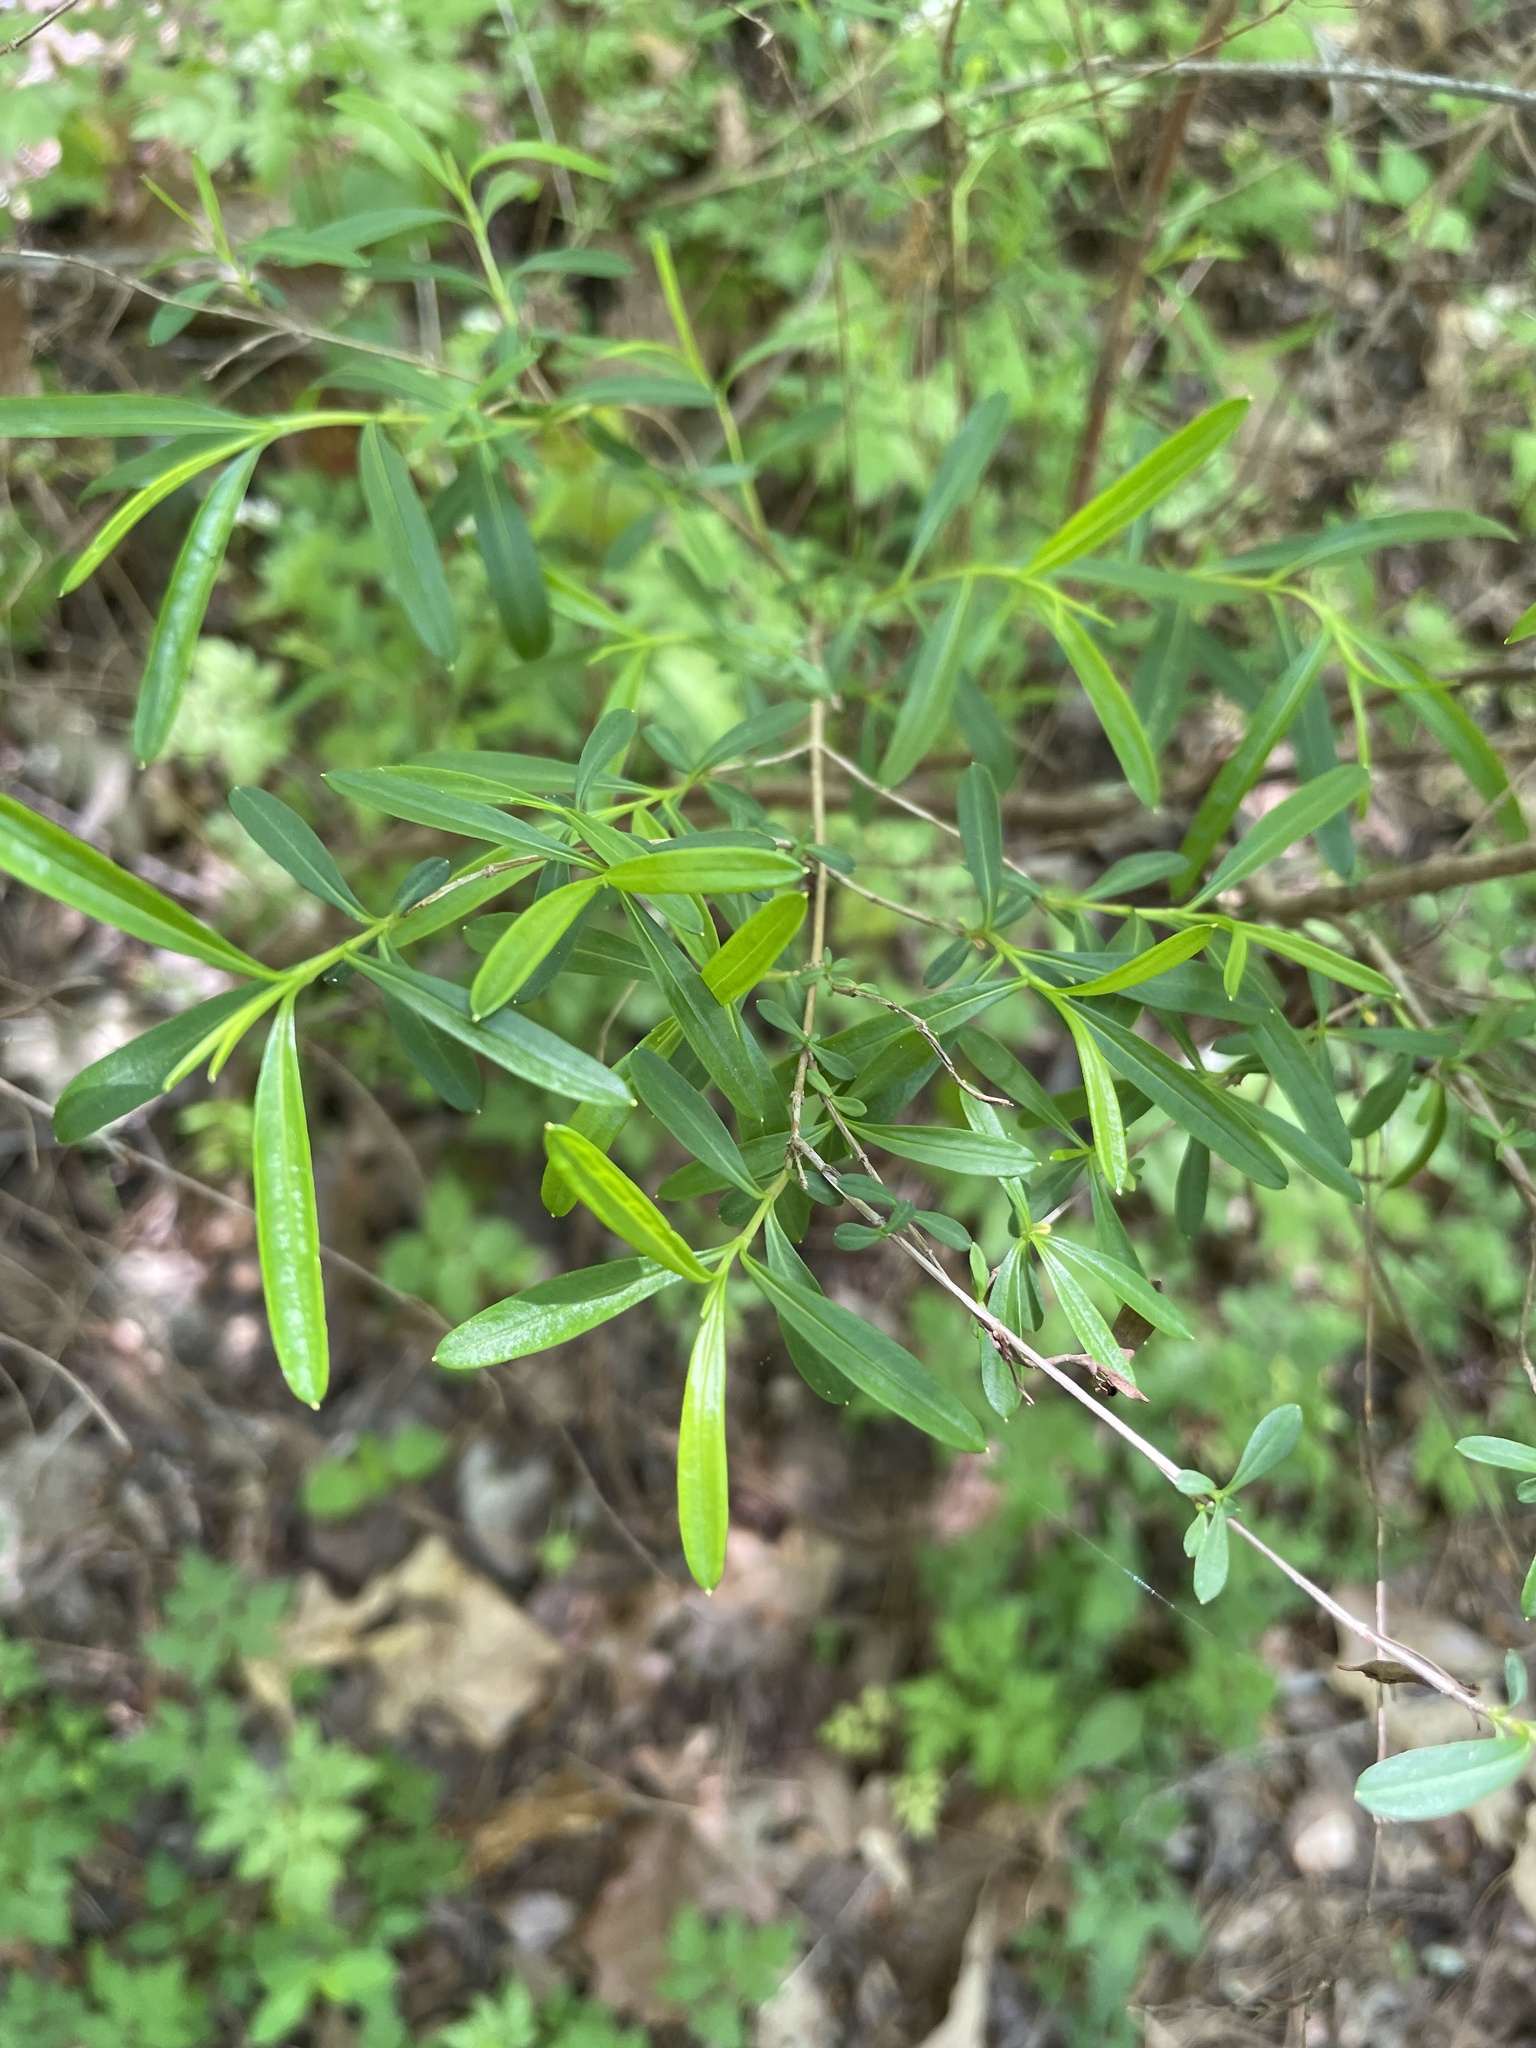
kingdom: Plantae
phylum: Tracheophyta
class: Magnoliopsida
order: Malpighiales
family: Hypericaceae
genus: Hypericum
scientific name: Hypericum densiflorum
